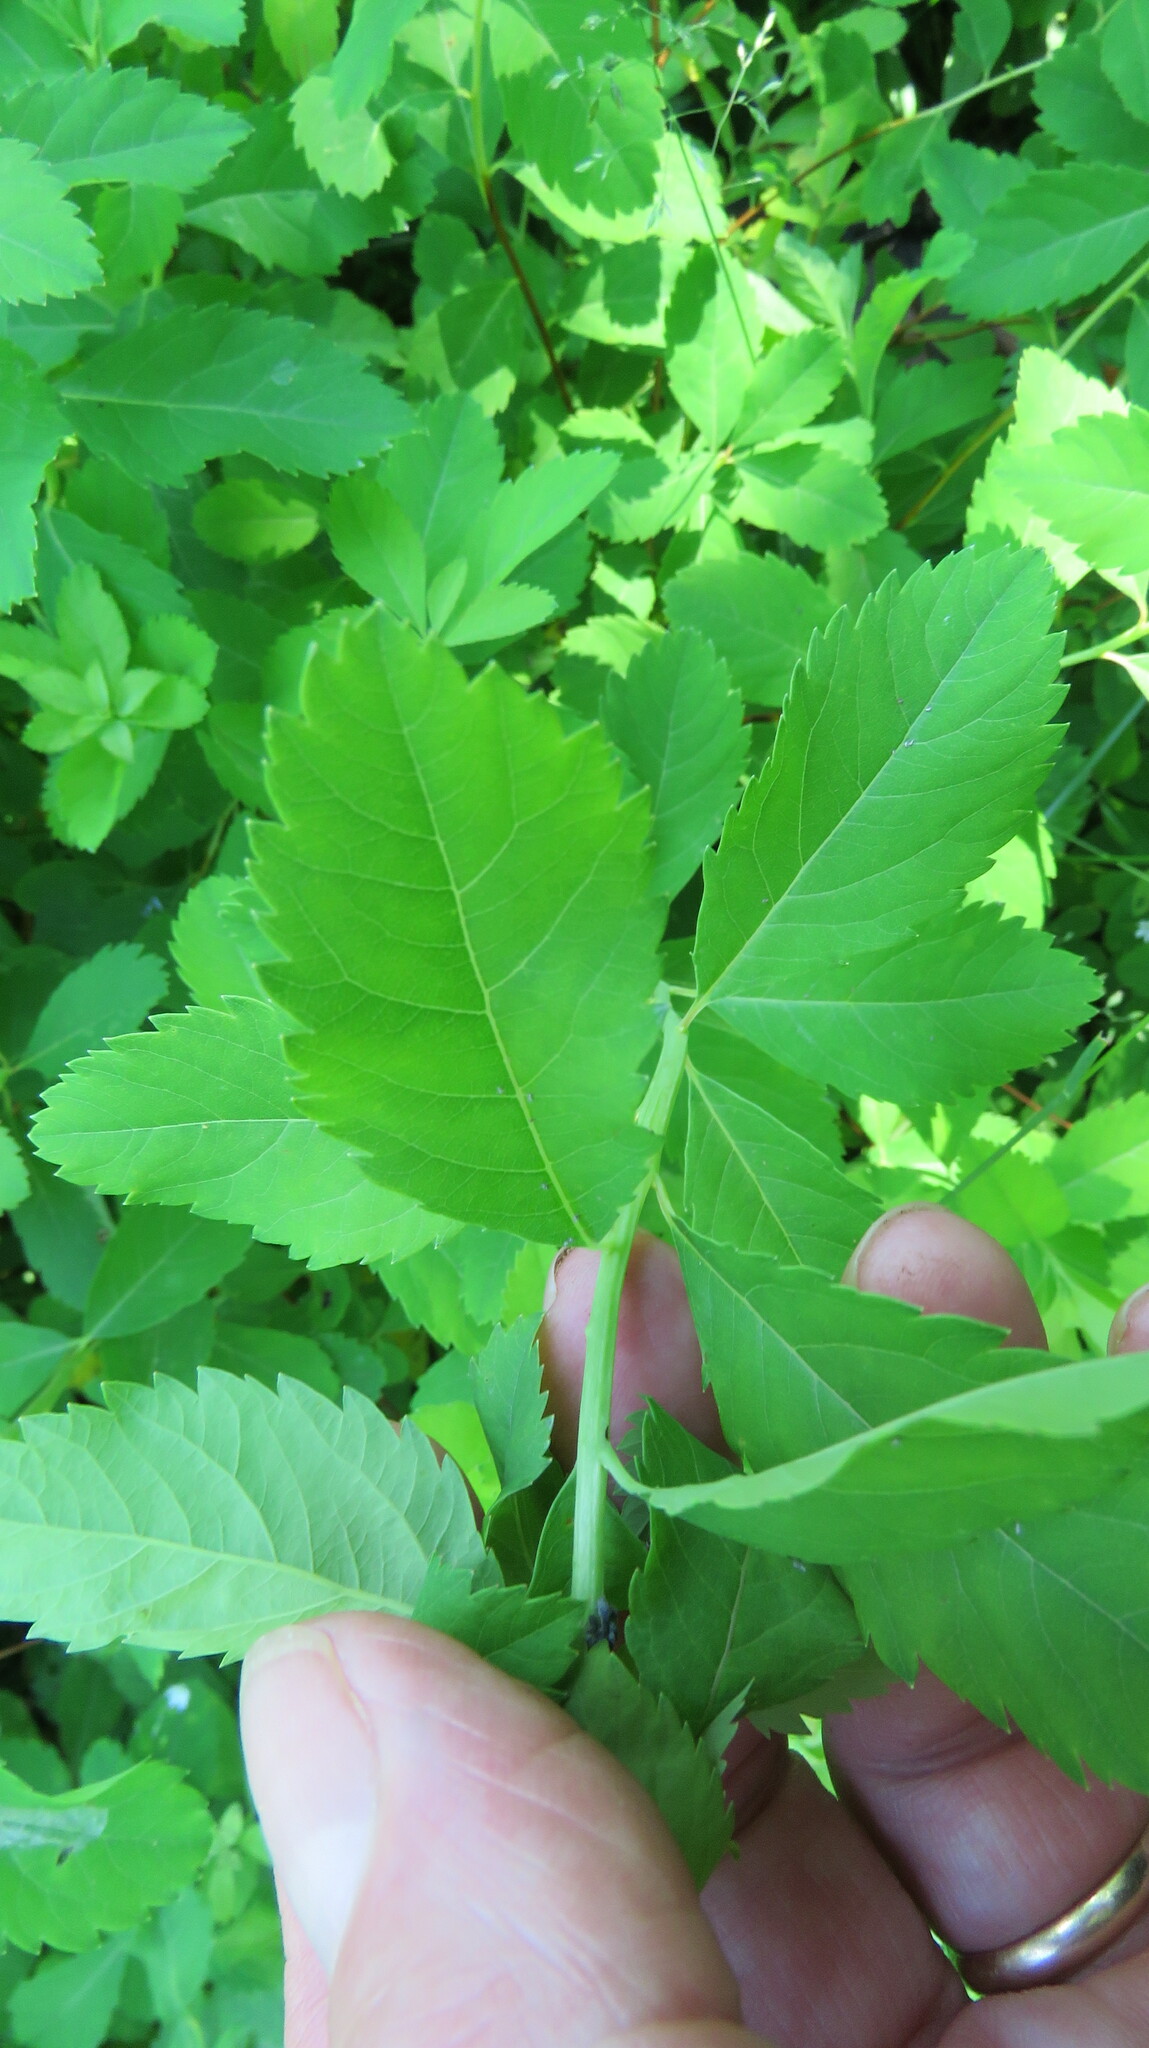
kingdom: Plantae
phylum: Tracheophyta
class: Magnoliopsida
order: Rosales
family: Rosaceae
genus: Spiraea
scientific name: Spiraea alba
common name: Pale bridewort
